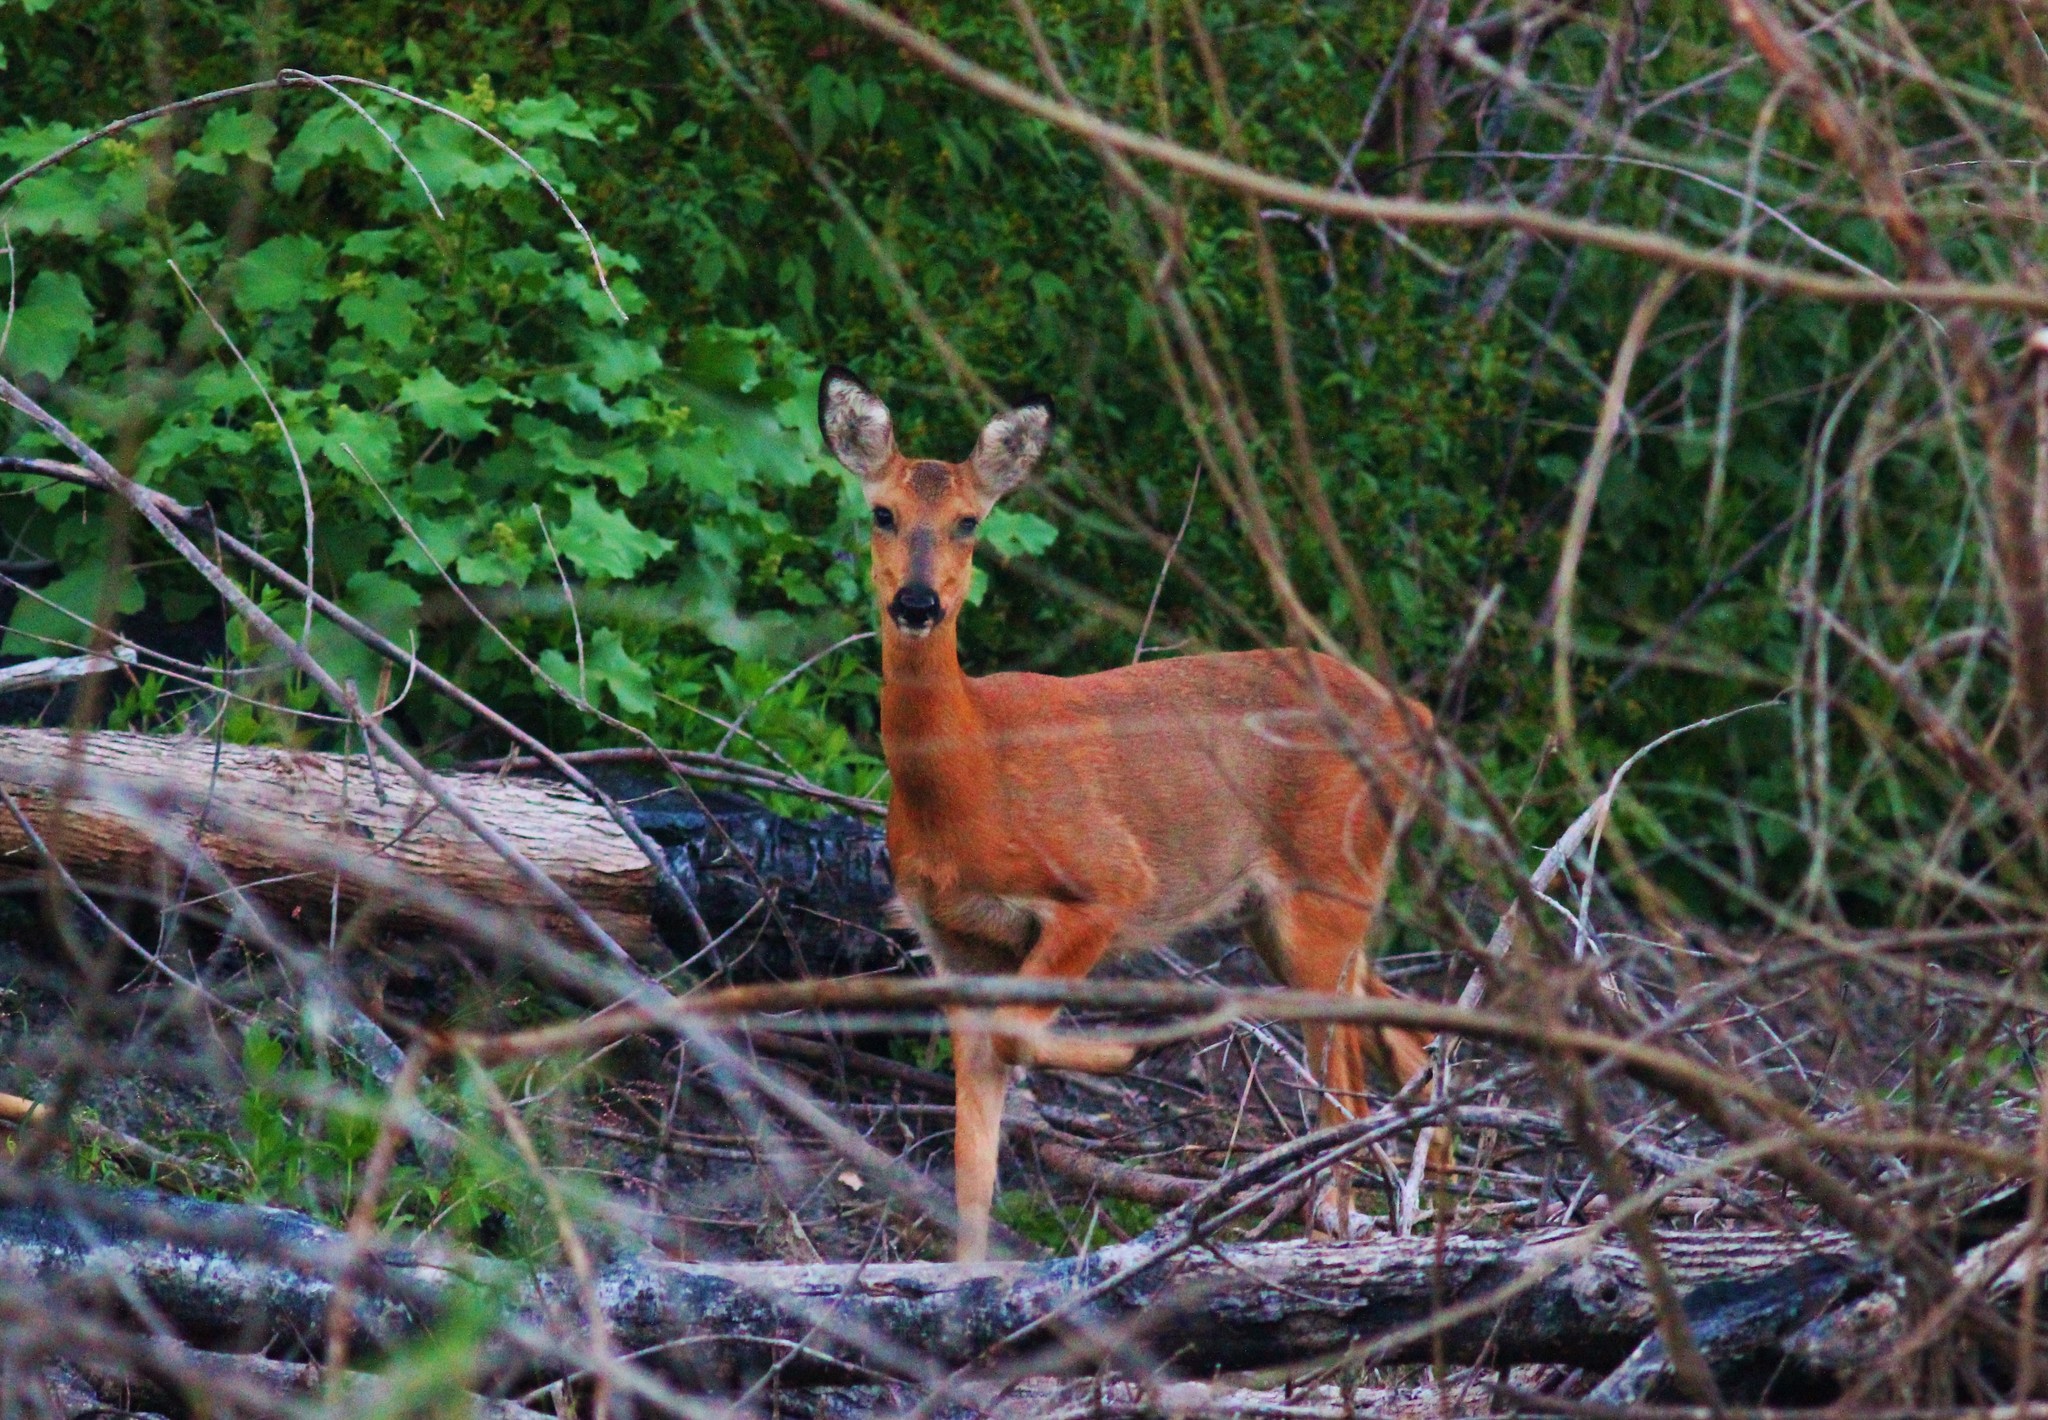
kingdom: Animalia
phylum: Chordata
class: Mammalia
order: Artiodactyla
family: Cervidae
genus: Capreolus
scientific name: Capreolus pygargus
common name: Siberian roe
